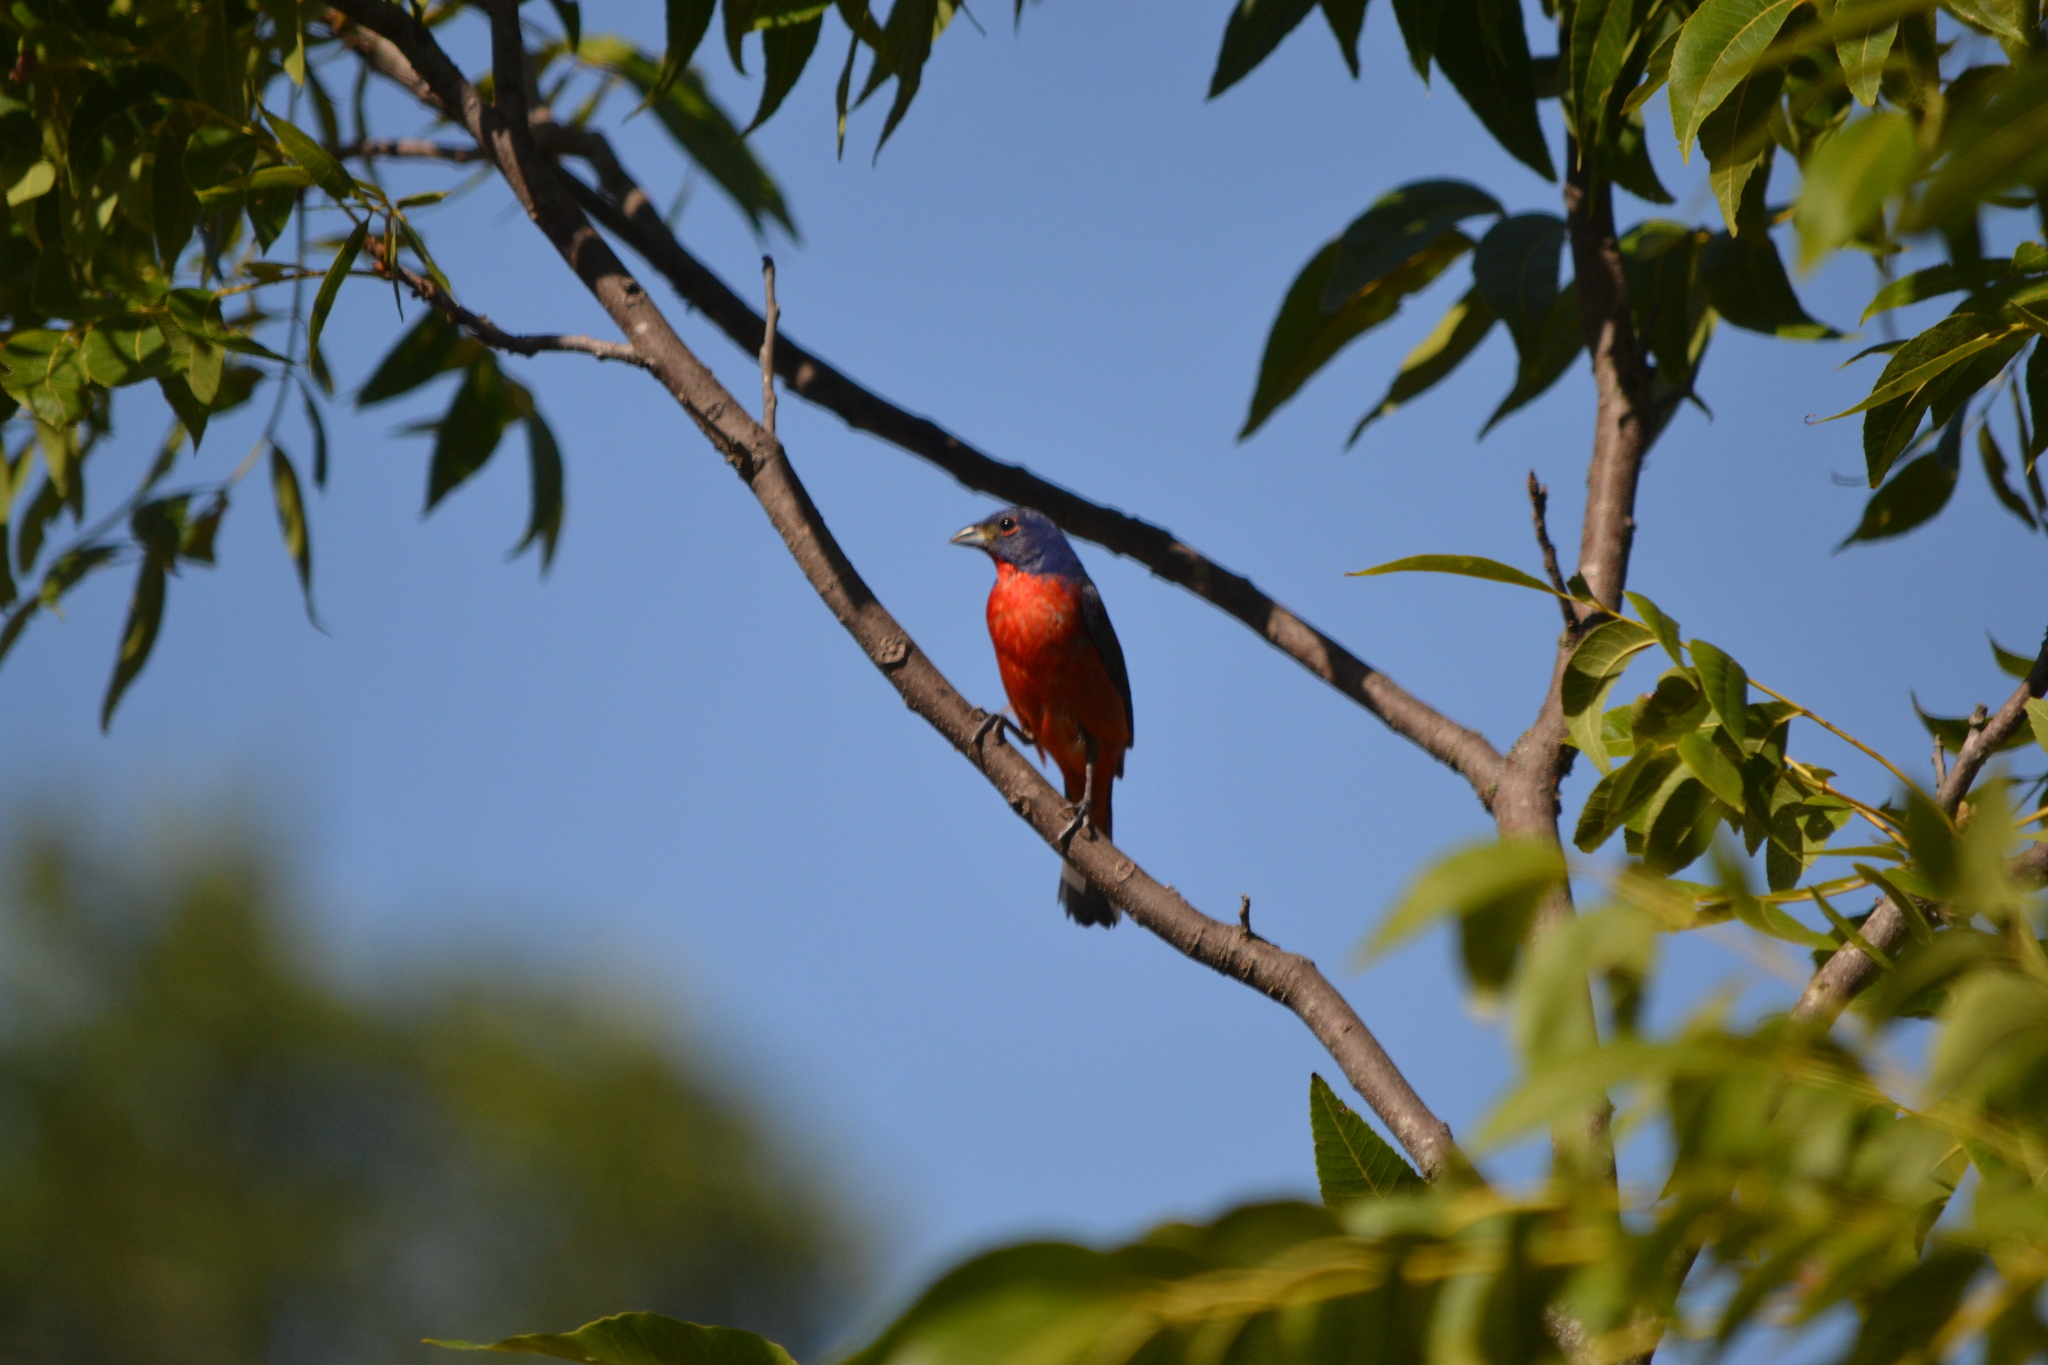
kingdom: Animalia
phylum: Chordata
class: Aves
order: Passeriformes
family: Cardinalidae
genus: Passerina
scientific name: Passerina ciris
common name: Painted bunting
